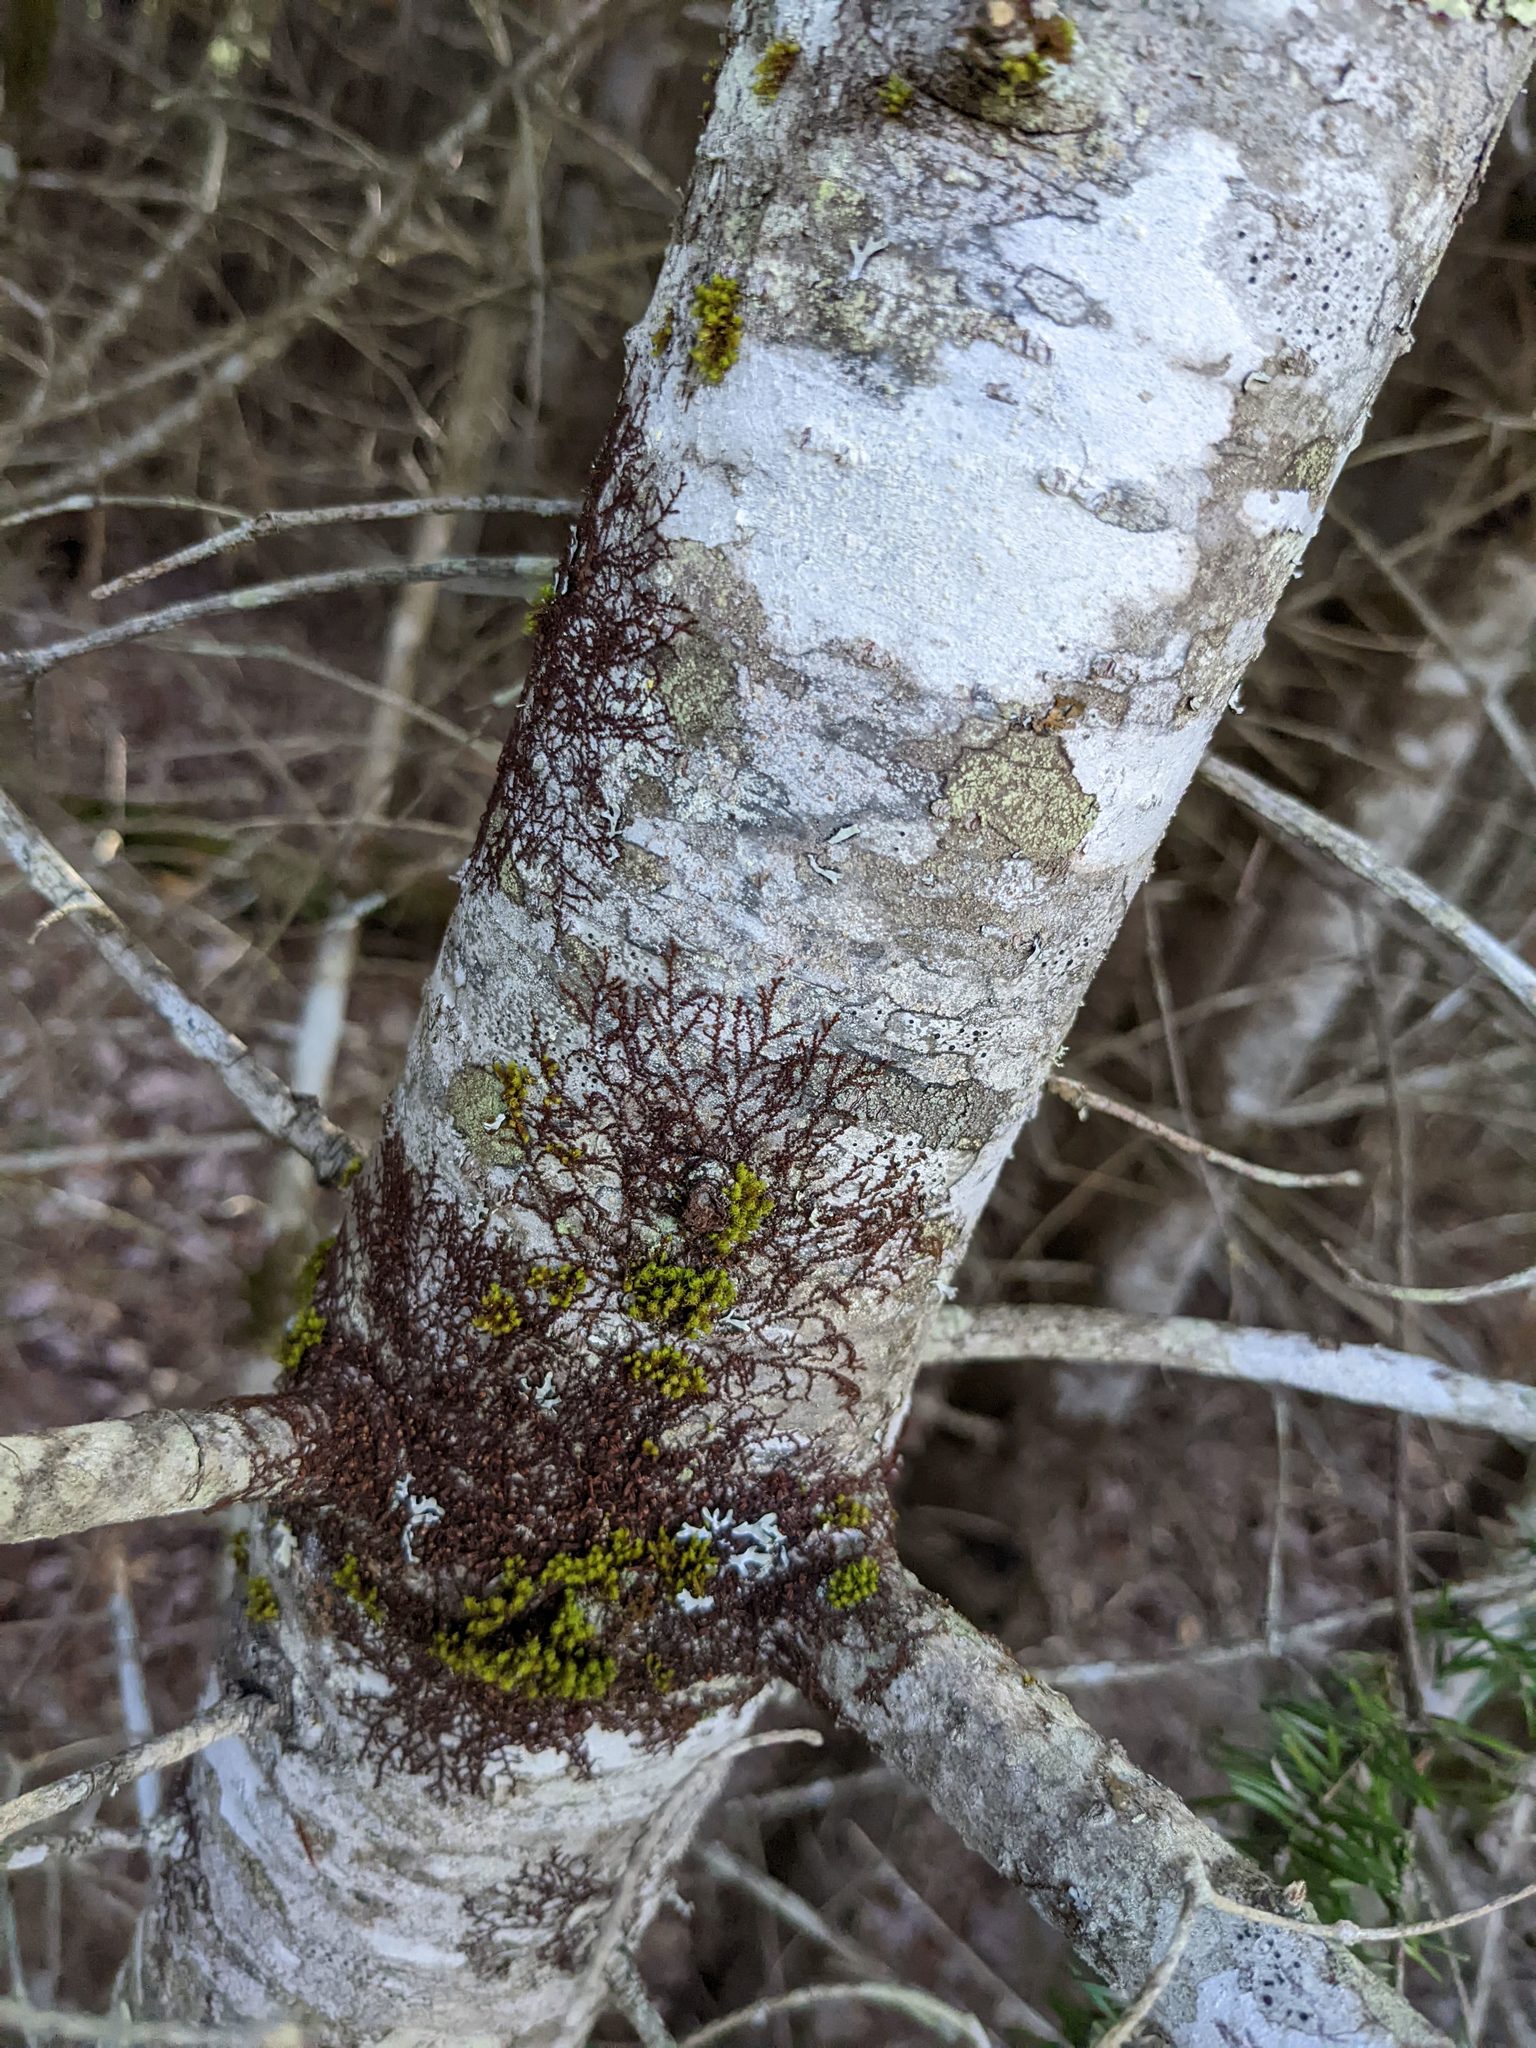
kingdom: Plantae
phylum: Marchantiophyta
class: Jungermanniopsida
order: Porellales
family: Frullaniaceae
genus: Frullania
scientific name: Frullania eboracensis
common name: New york scalewort
